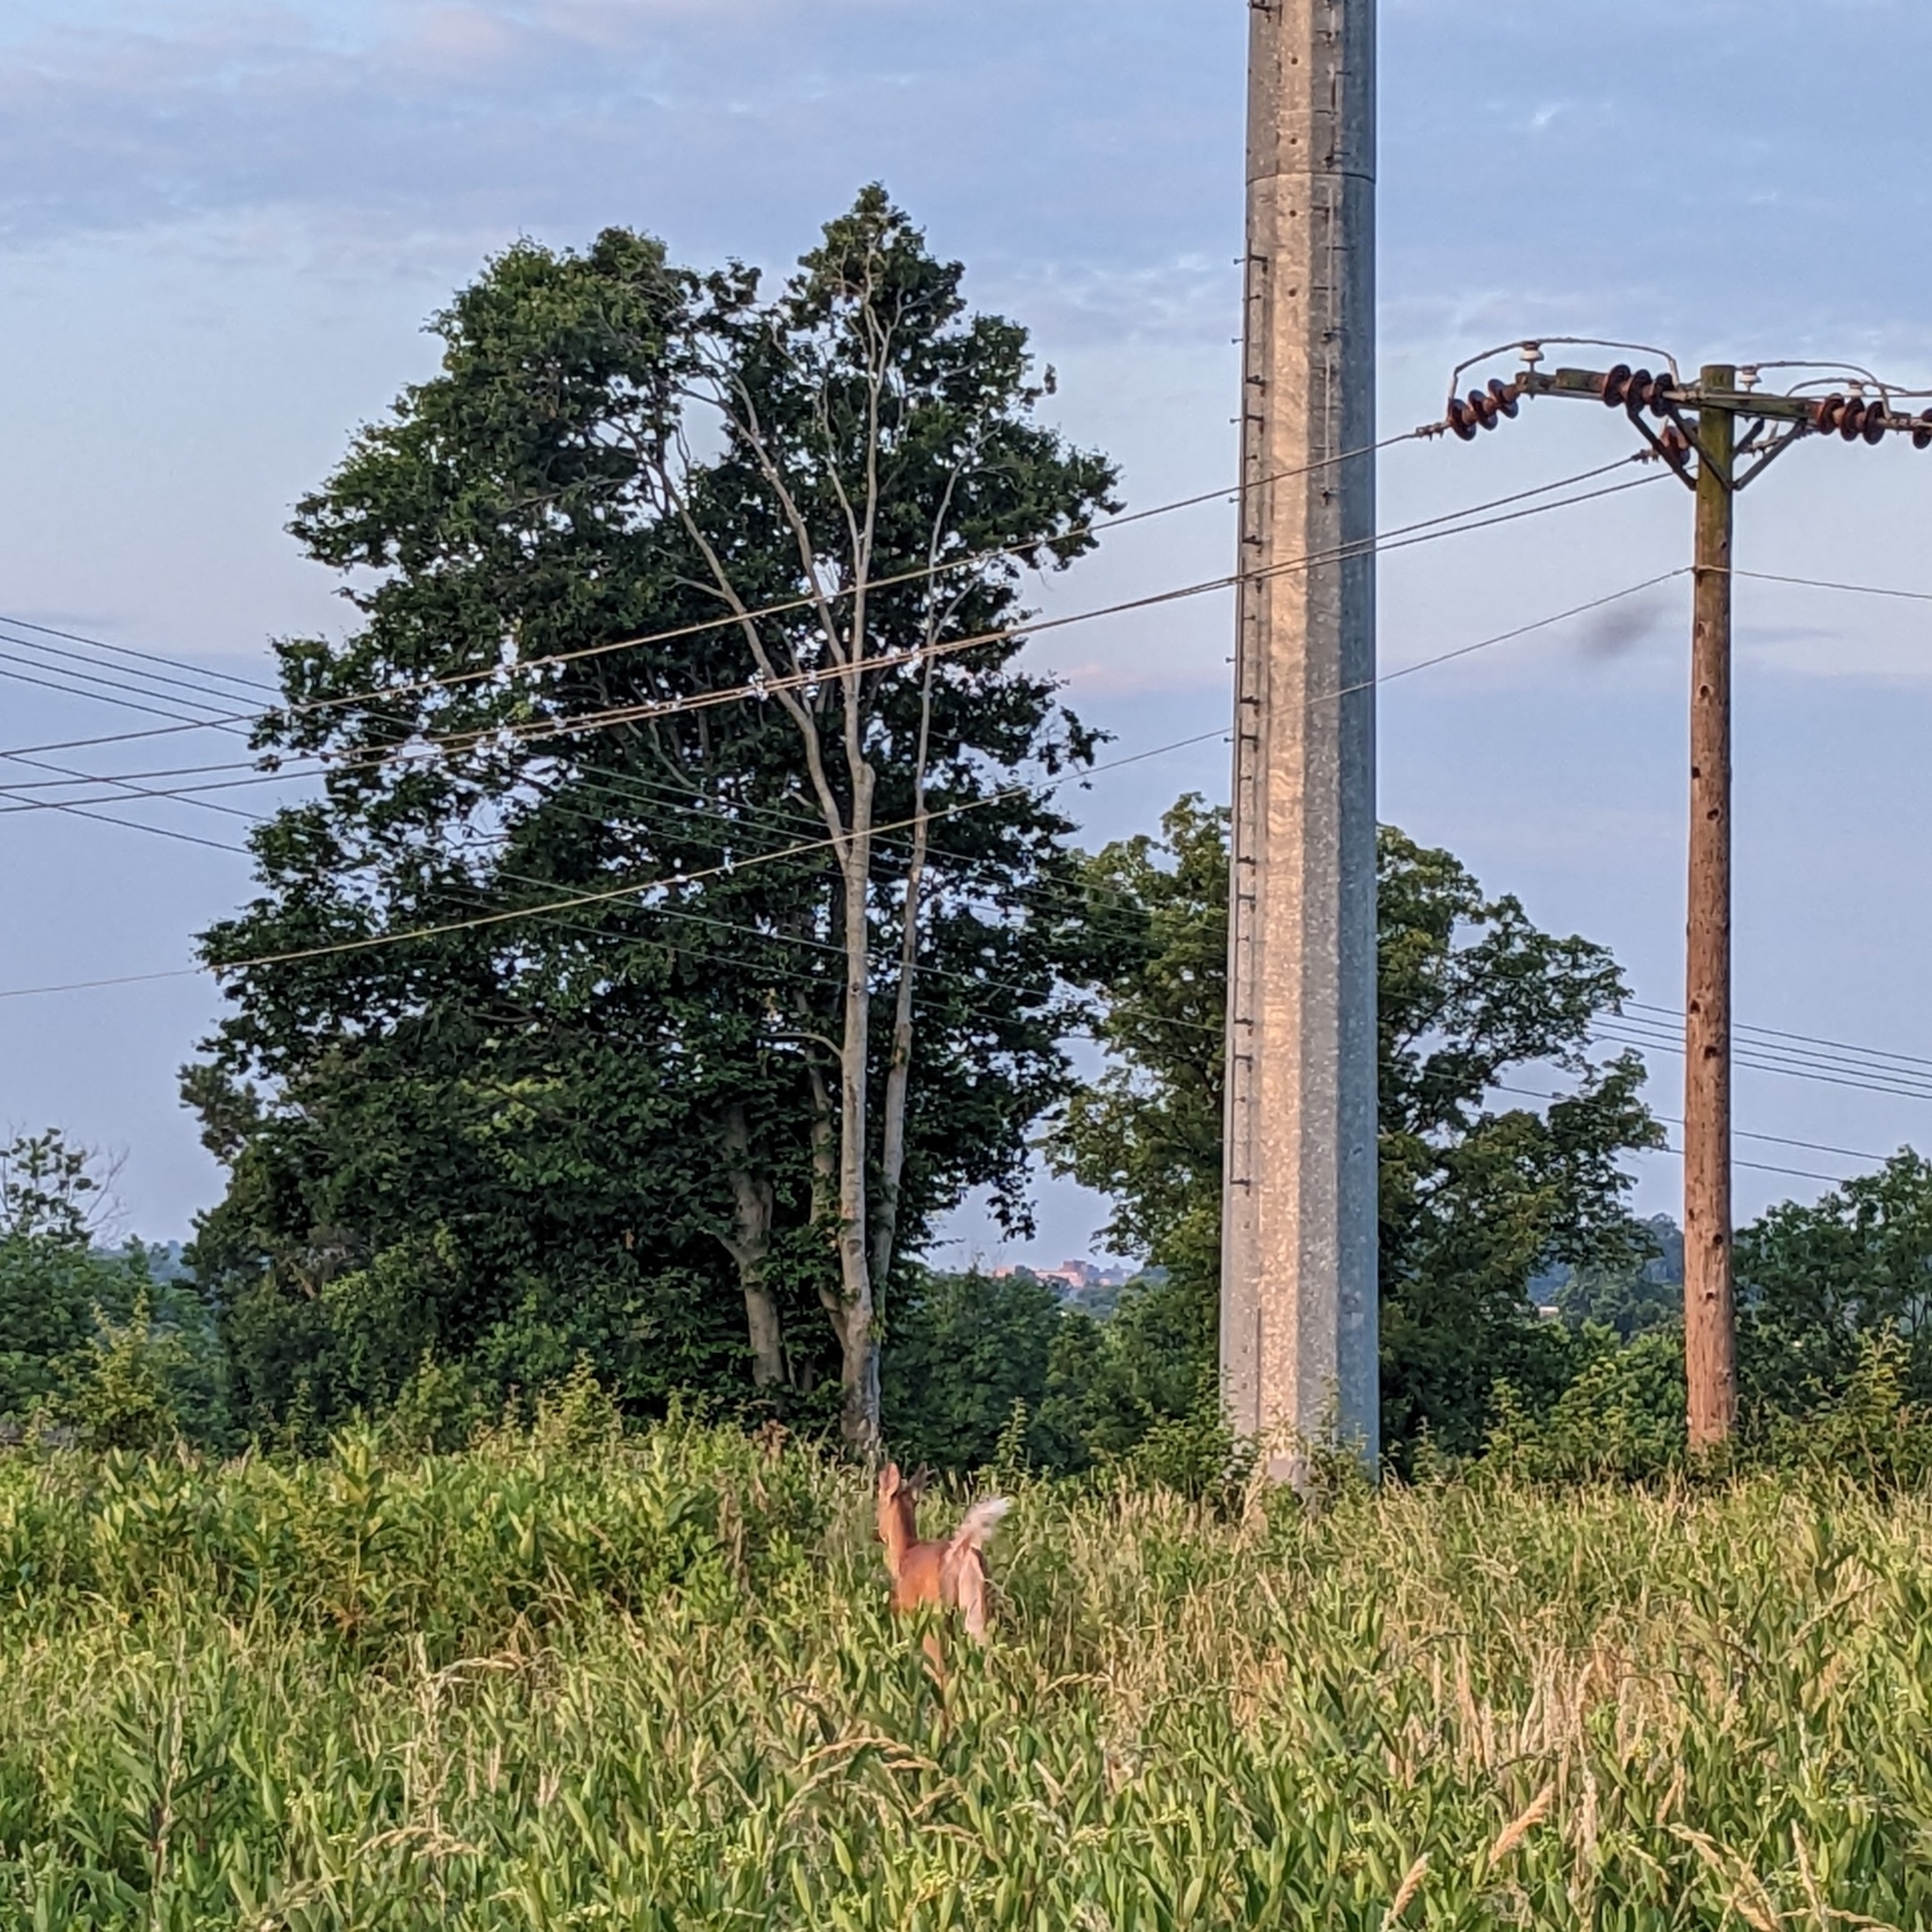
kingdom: Animalia
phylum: Chordata
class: Mammalia
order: Artiodactyla
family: Cervidae
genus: Odocoileus
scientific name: Odocoileus virginianus
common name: White-tailed deer
